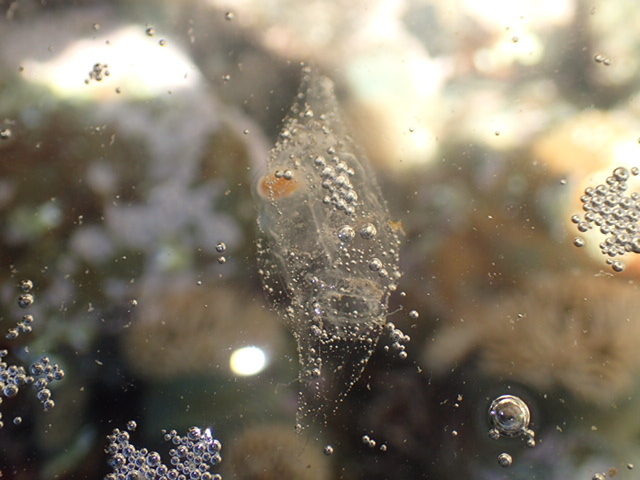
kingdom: Animalia
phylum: Chordata
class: Thaliacea
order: Salpida
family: Salpidae
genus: Soestia
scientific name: Soestia zonaria
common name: Deepsea solitary salp
